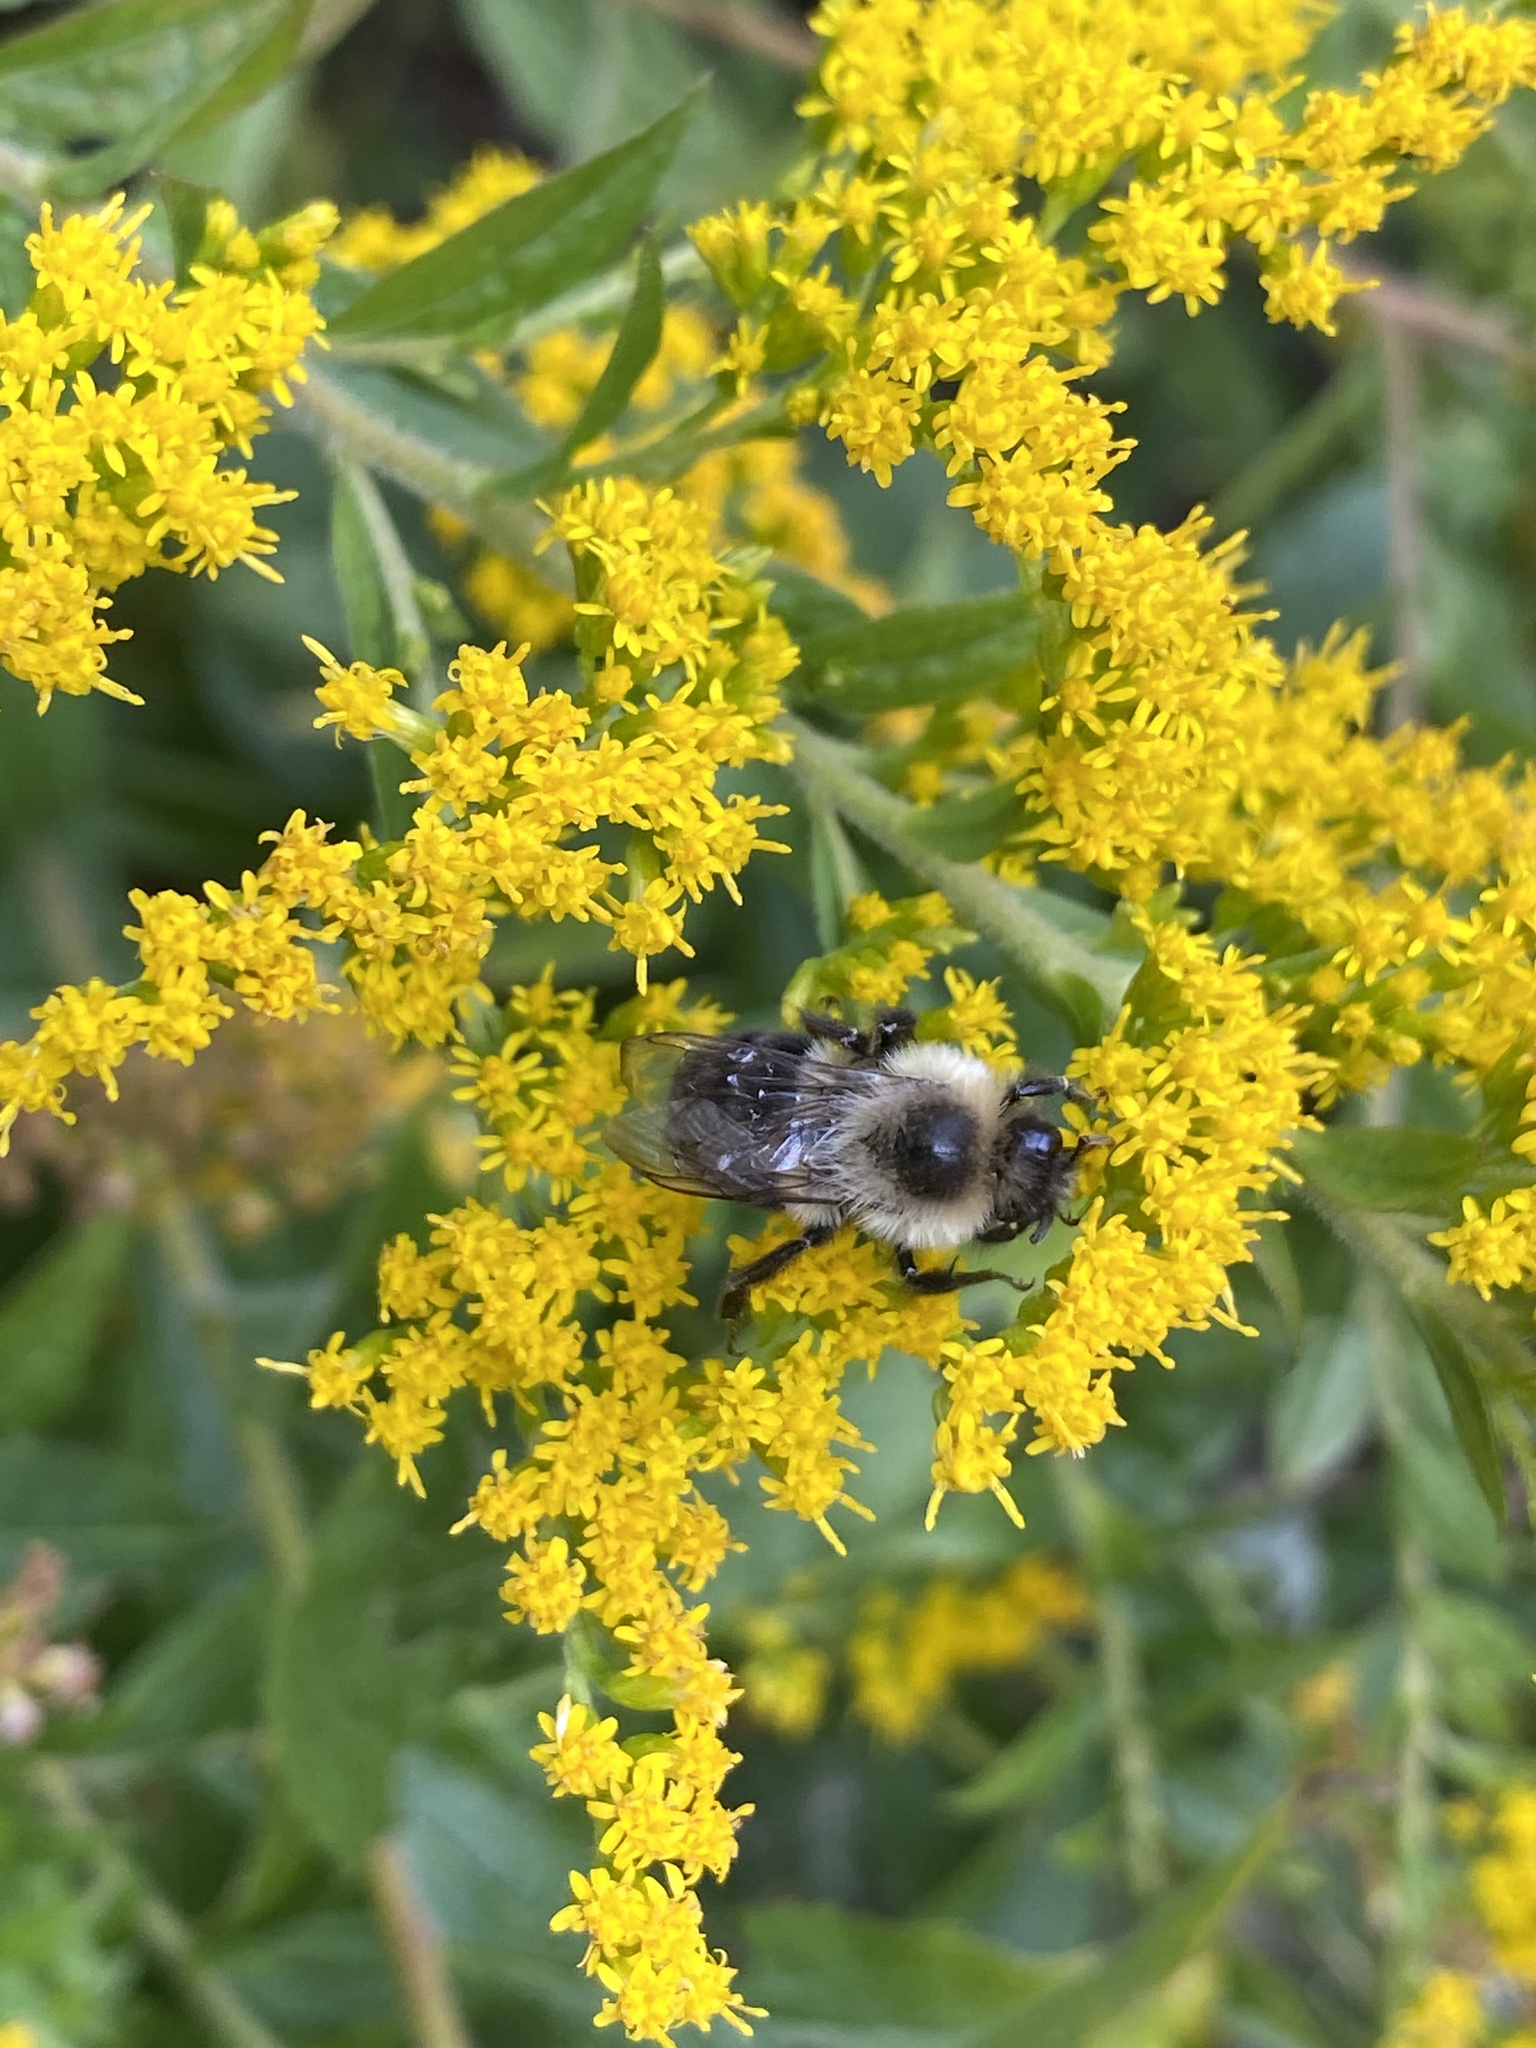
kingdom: Animalia
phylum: Arthropoda
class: Insecta
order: Hymenoptera
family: Apidae
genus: Bombus
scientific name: Bombus impatiens
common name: Common eastern bumble bee
